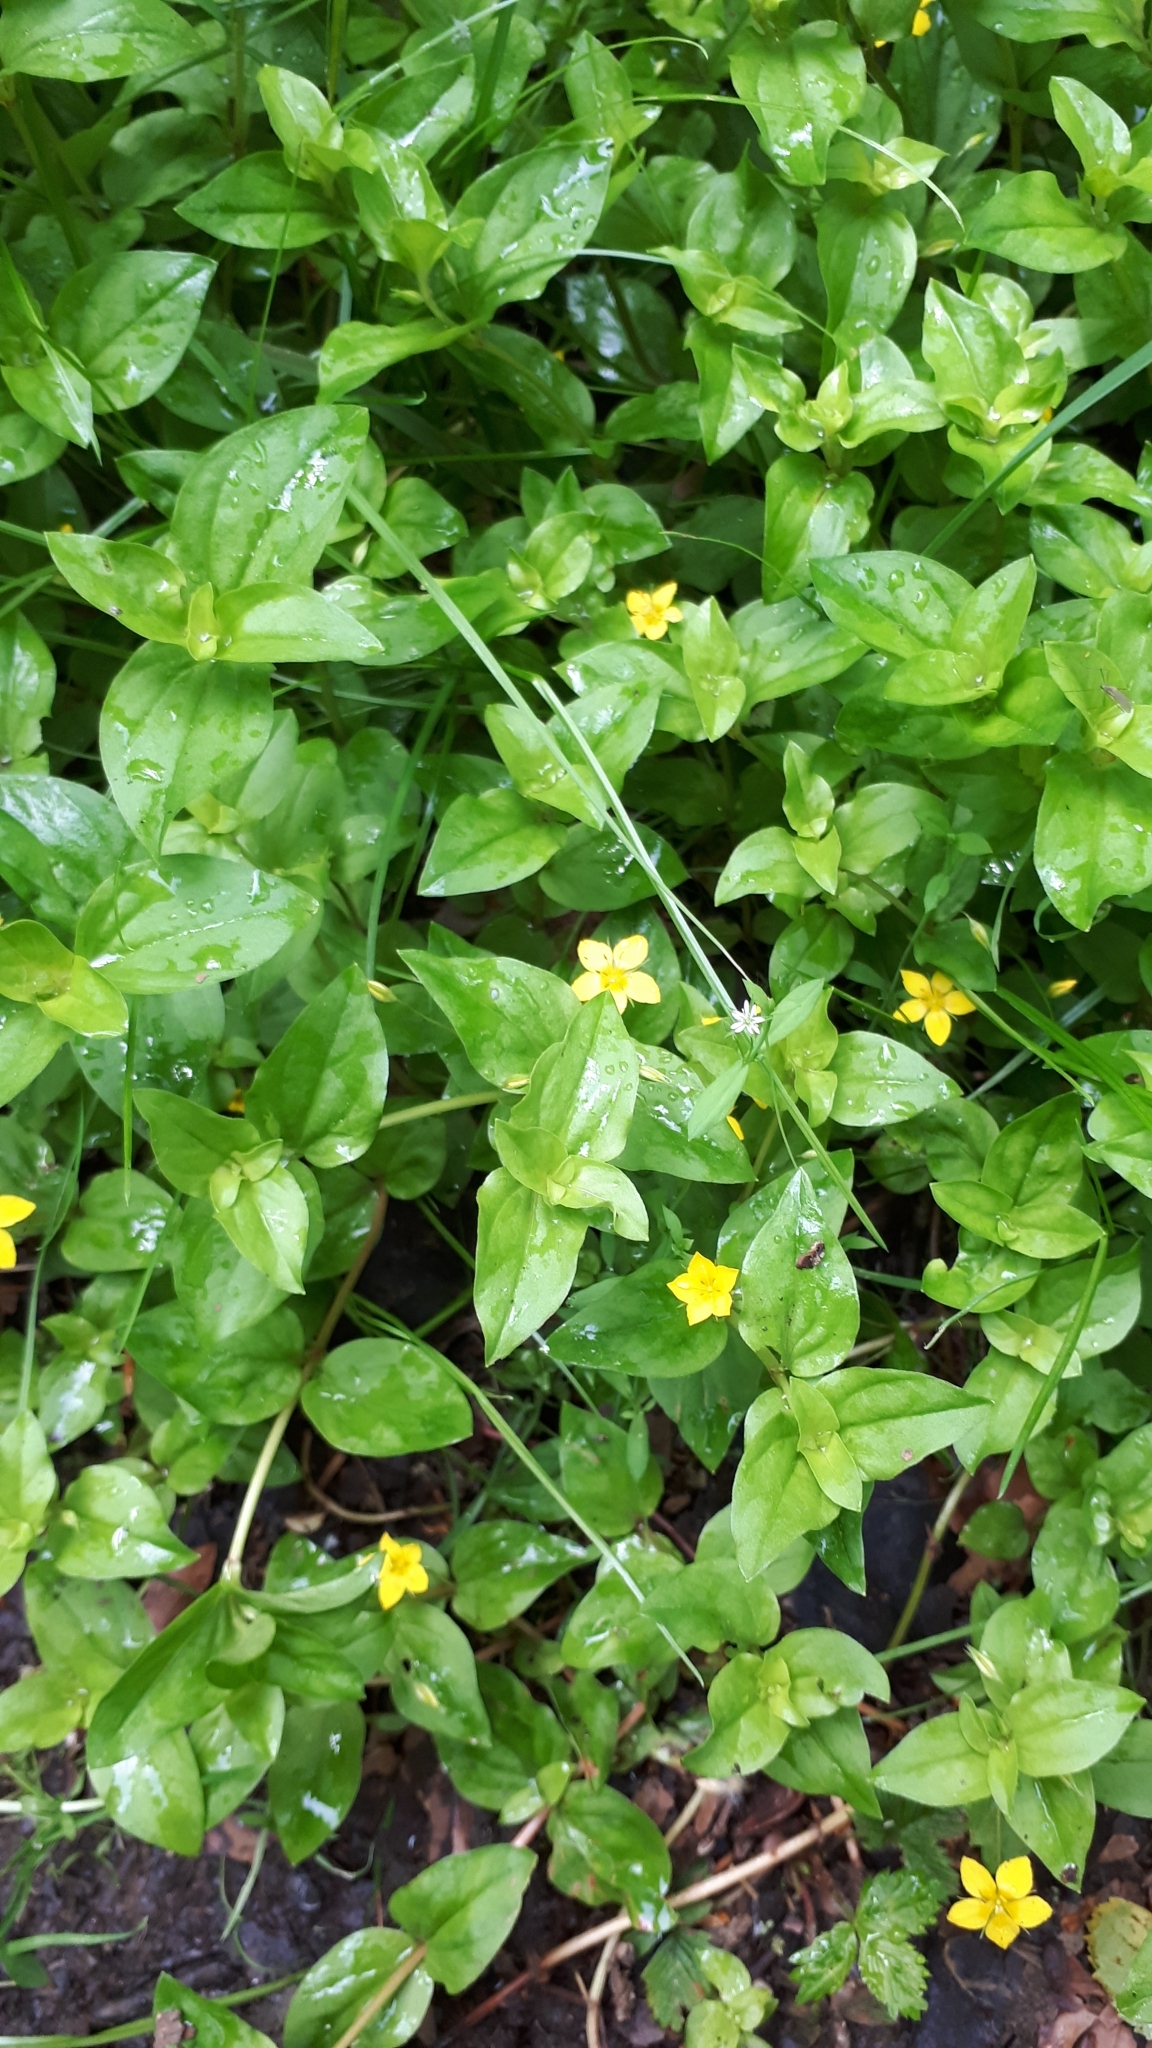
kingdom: Plantae
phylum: Tracheophyta
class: Magnoliopsida
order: Ericales
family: Primulaceae
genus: Lysimachia
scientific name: Lysimachia nemorum
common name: Yellow pimpernel
